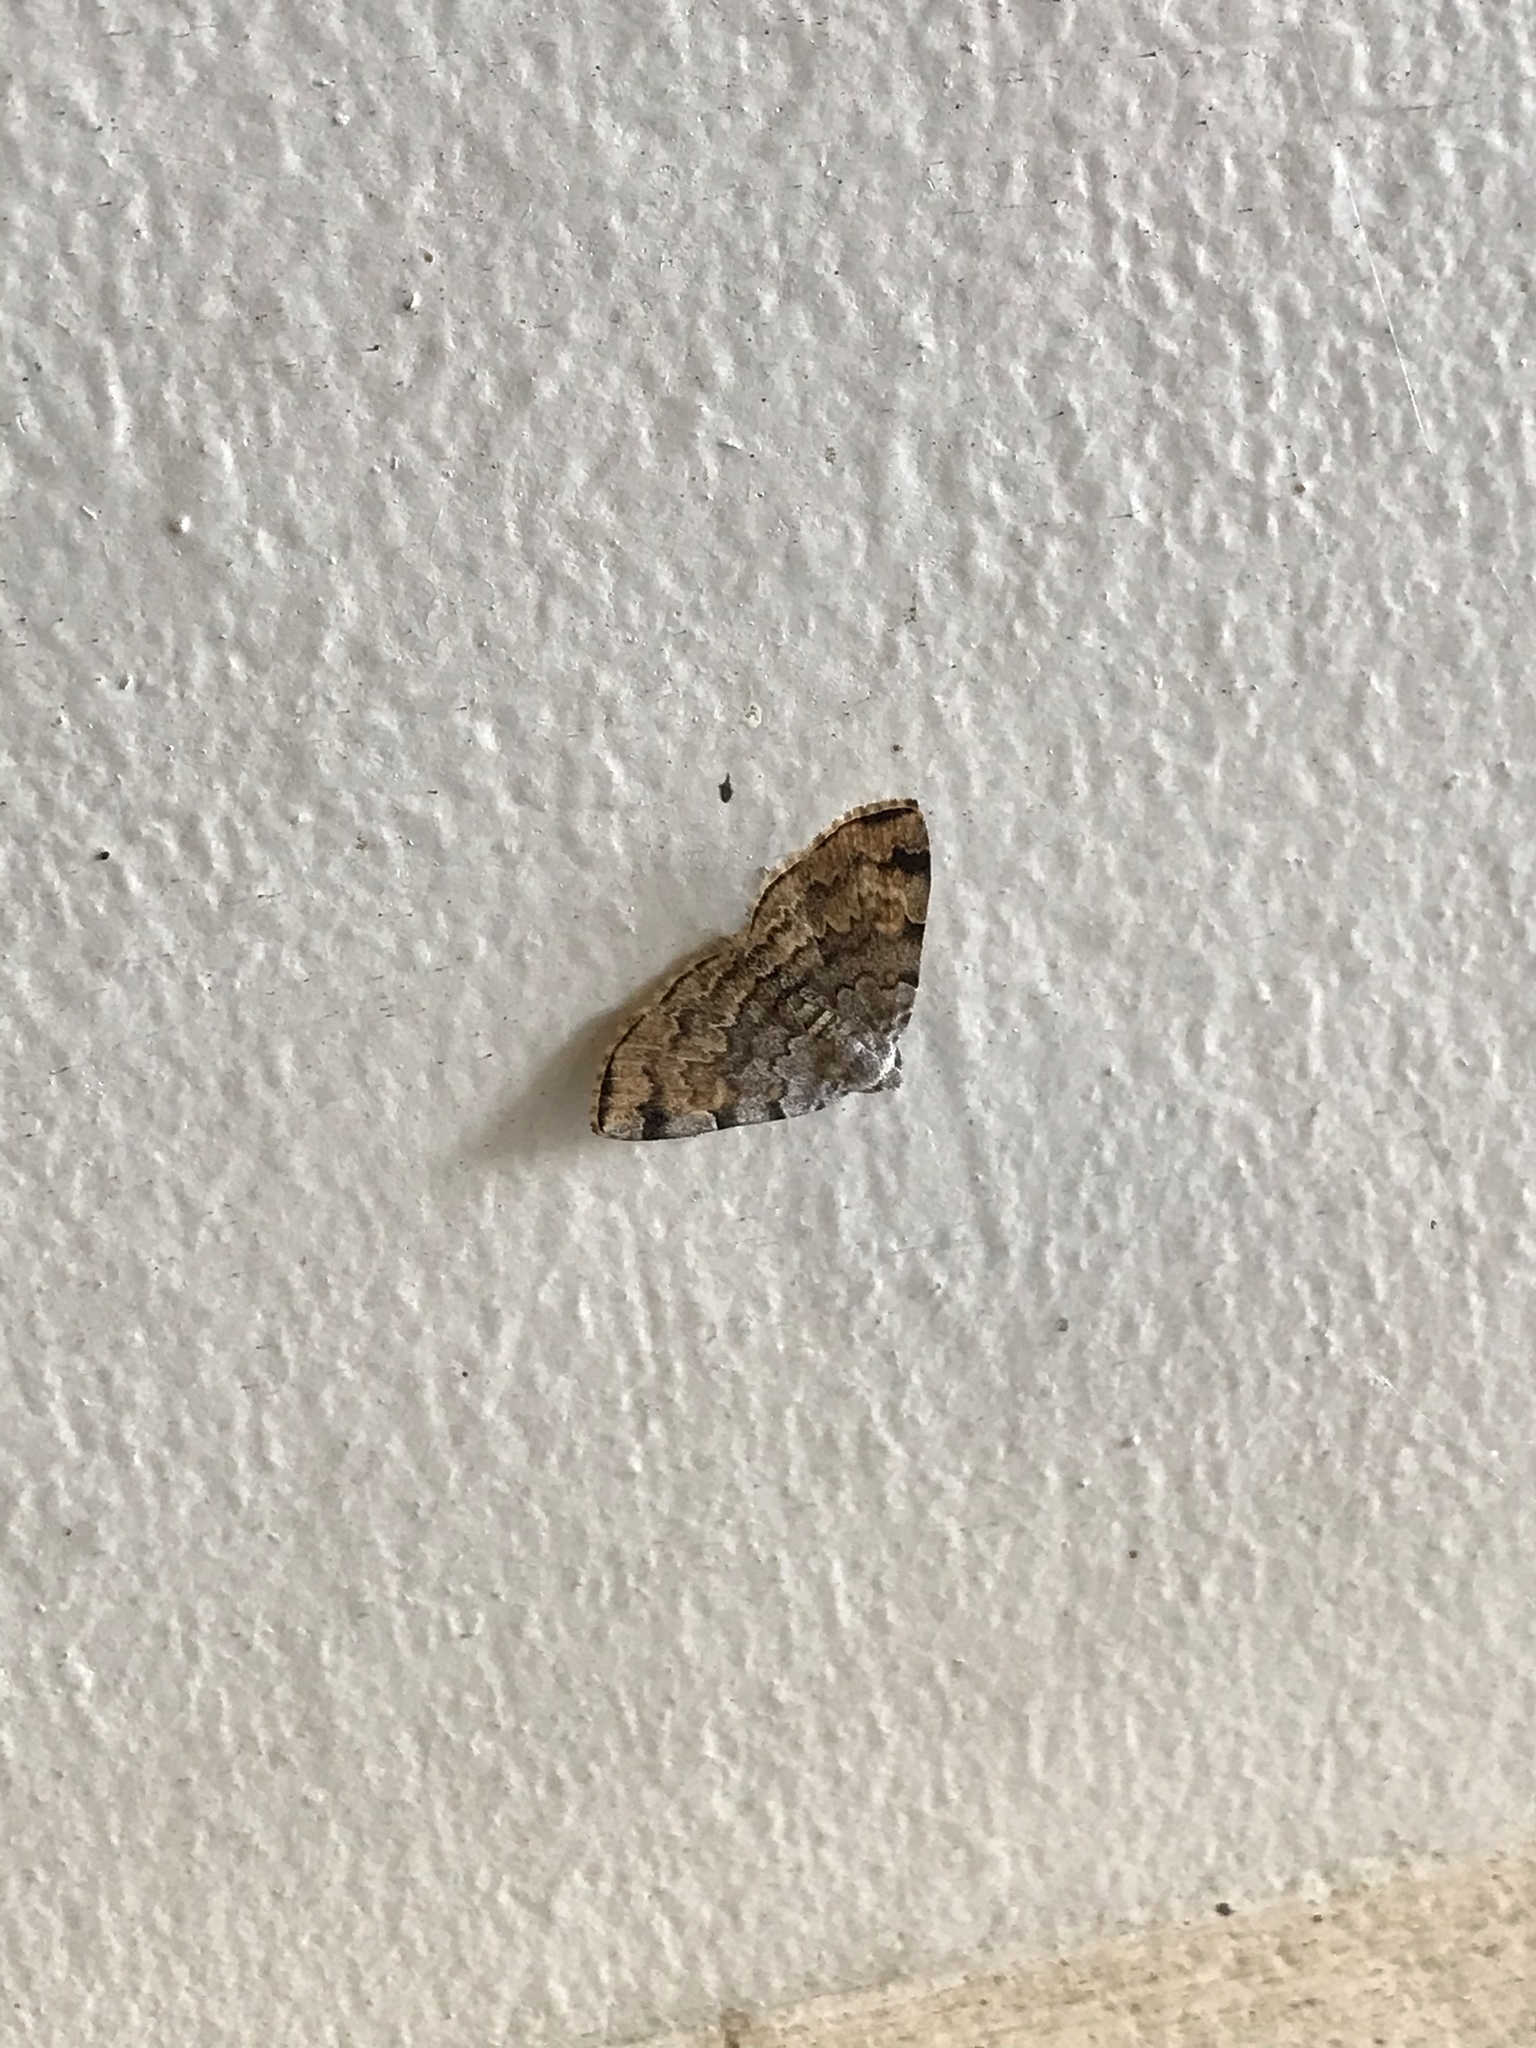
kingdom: Animalia
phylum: Arthropoda
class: Insecta
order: Lepidoptera
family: Erebidae
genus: Idia
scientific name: Idia americalis
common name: American idia moth
